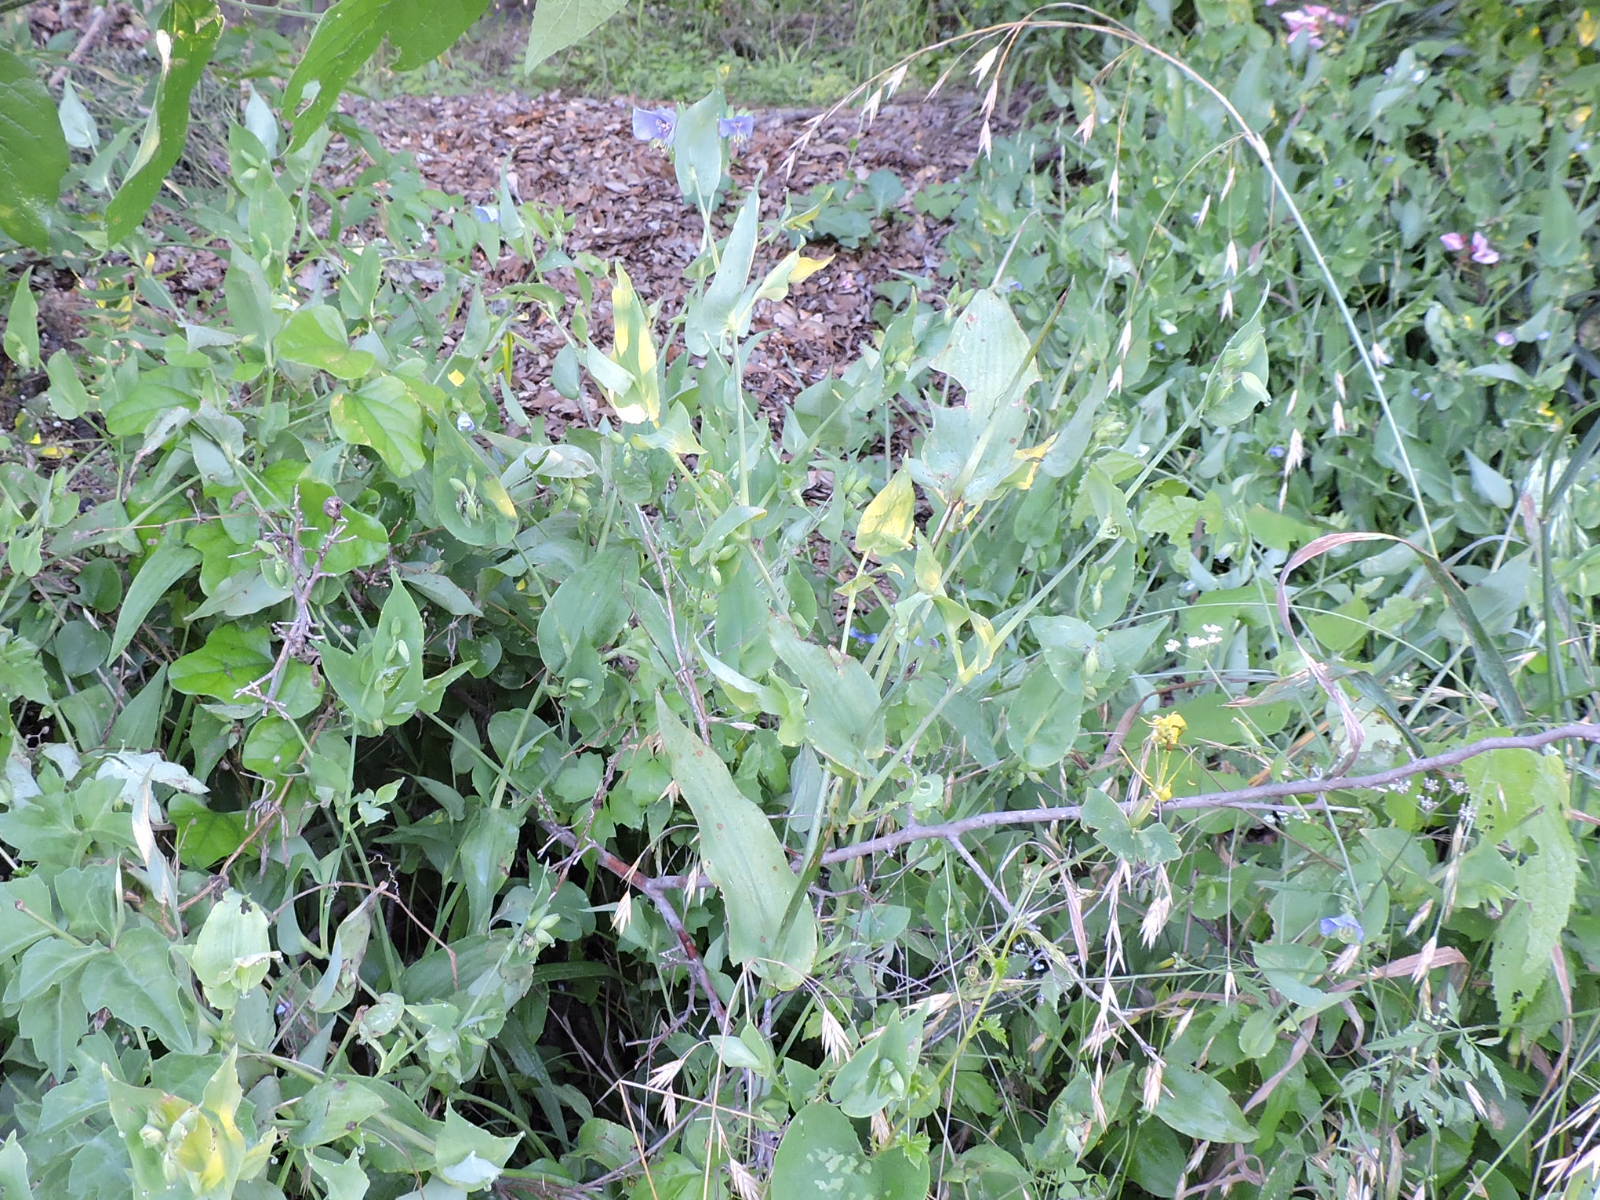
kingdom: Plantae
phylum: Tracheophyta
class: Liliopsida
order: Commelinales
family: Commelinaceae
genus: Tinantia
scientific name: Tinantia anomala
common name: False dayflower
